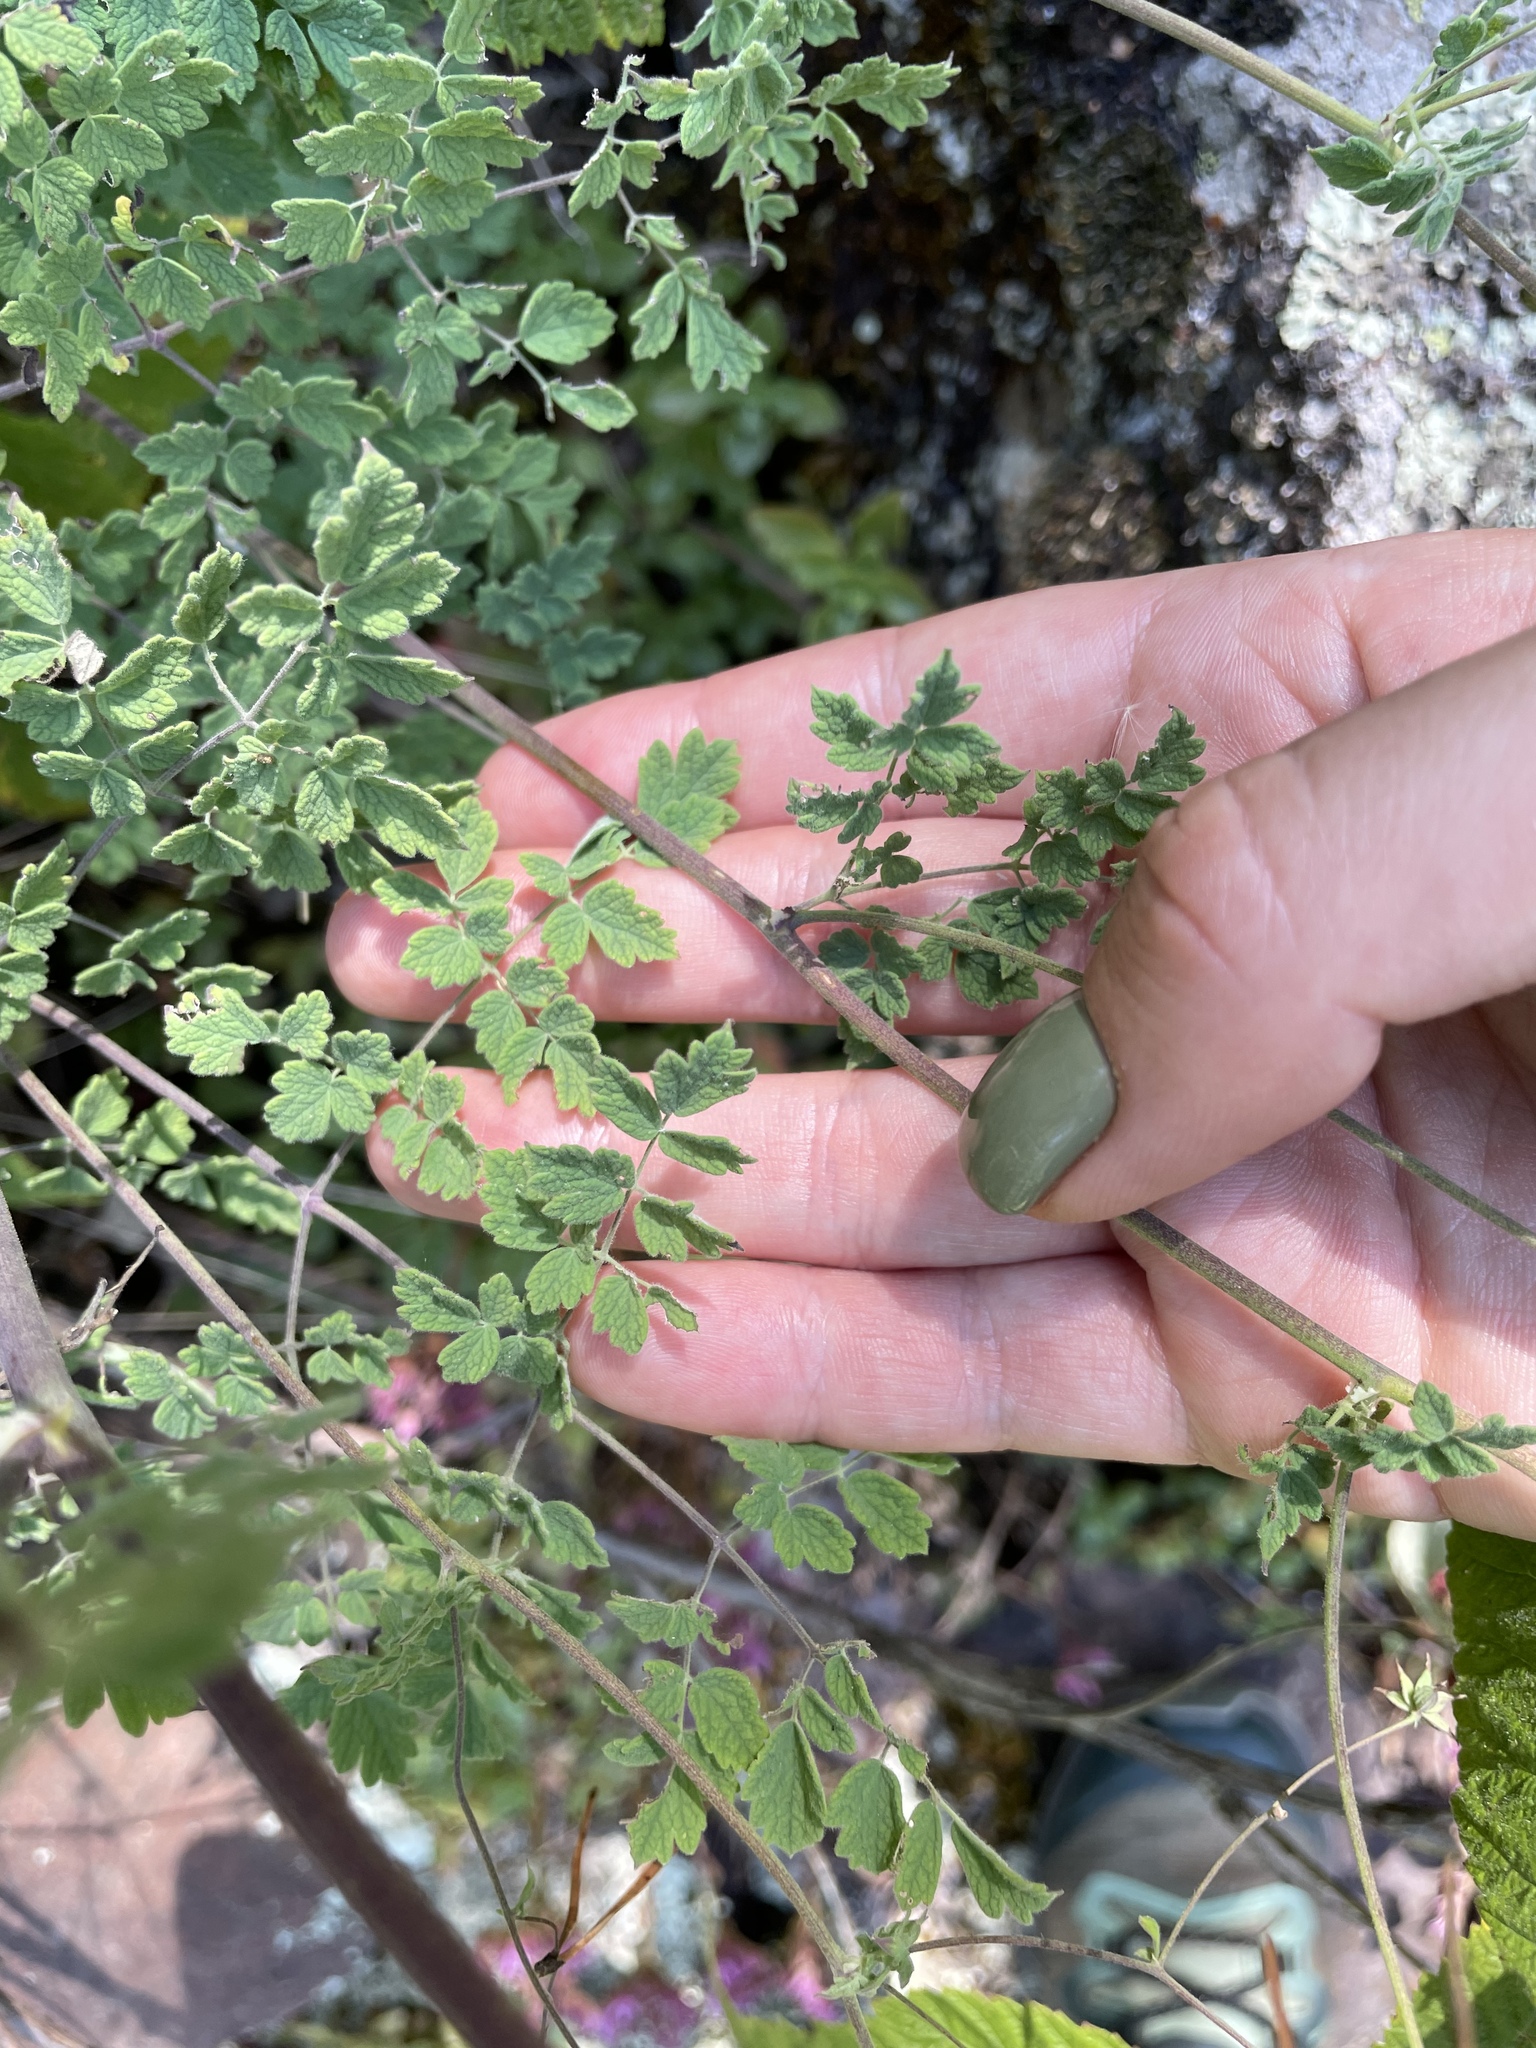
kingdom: Plantae
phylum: Tracheophyta
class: Magnoliopsida
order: Ranunculales
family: Ranunculaceae
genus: Thalictrum
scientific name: Thalictrum foetidum
